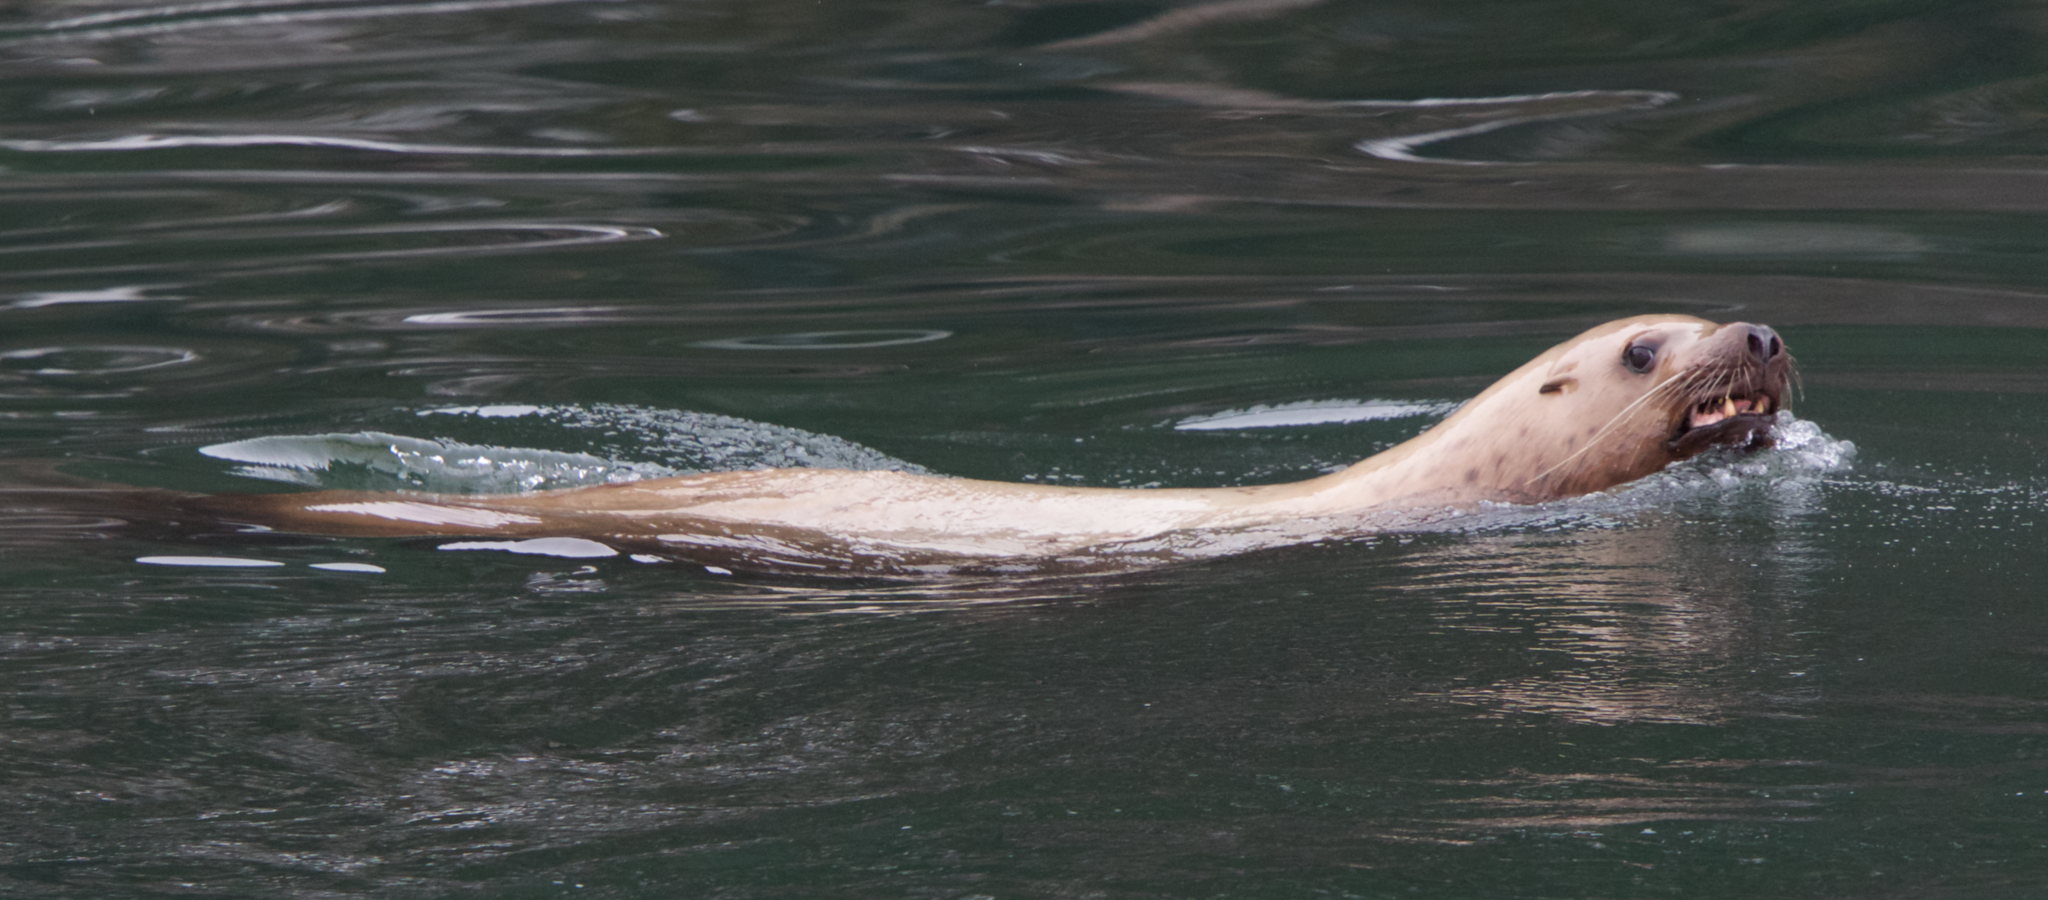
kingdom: Animalia
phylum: Chordata
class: Mammalia
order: Carnivora
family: Otariidae
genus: Eumetopias
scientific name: Eumetopias jubatus
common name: Steller sea lion
